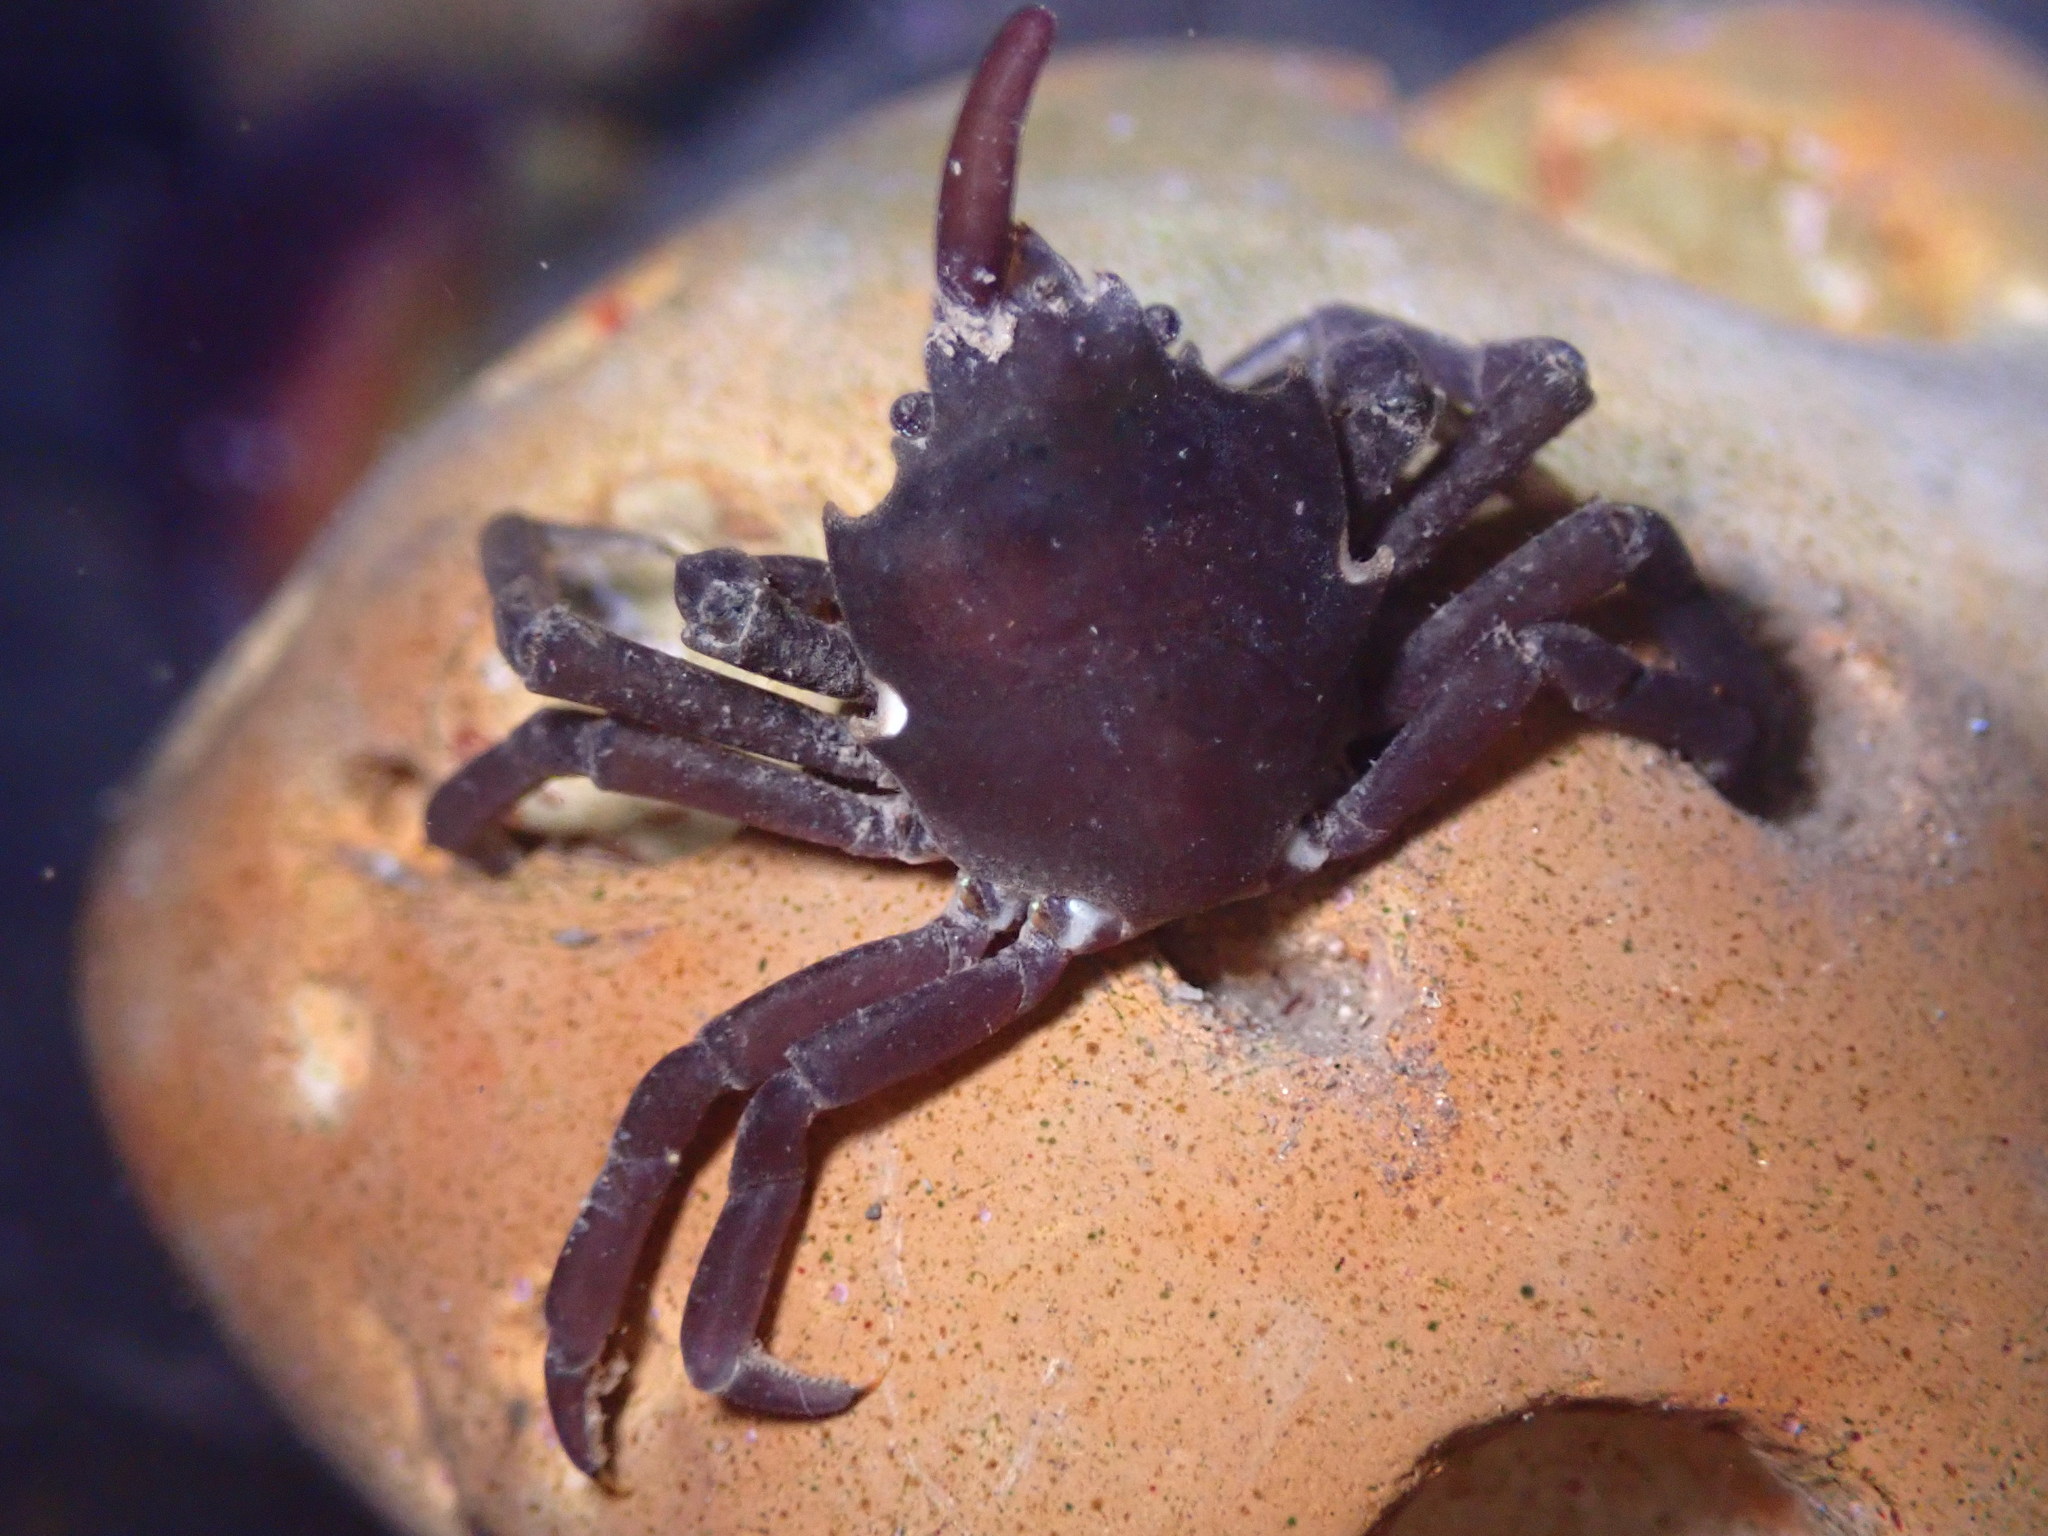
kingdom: Animalia
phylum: Arthropoda
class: Malacostraca
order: Decapoda
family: Epialtidae
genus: Pugettia
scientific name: Pugettia producta
